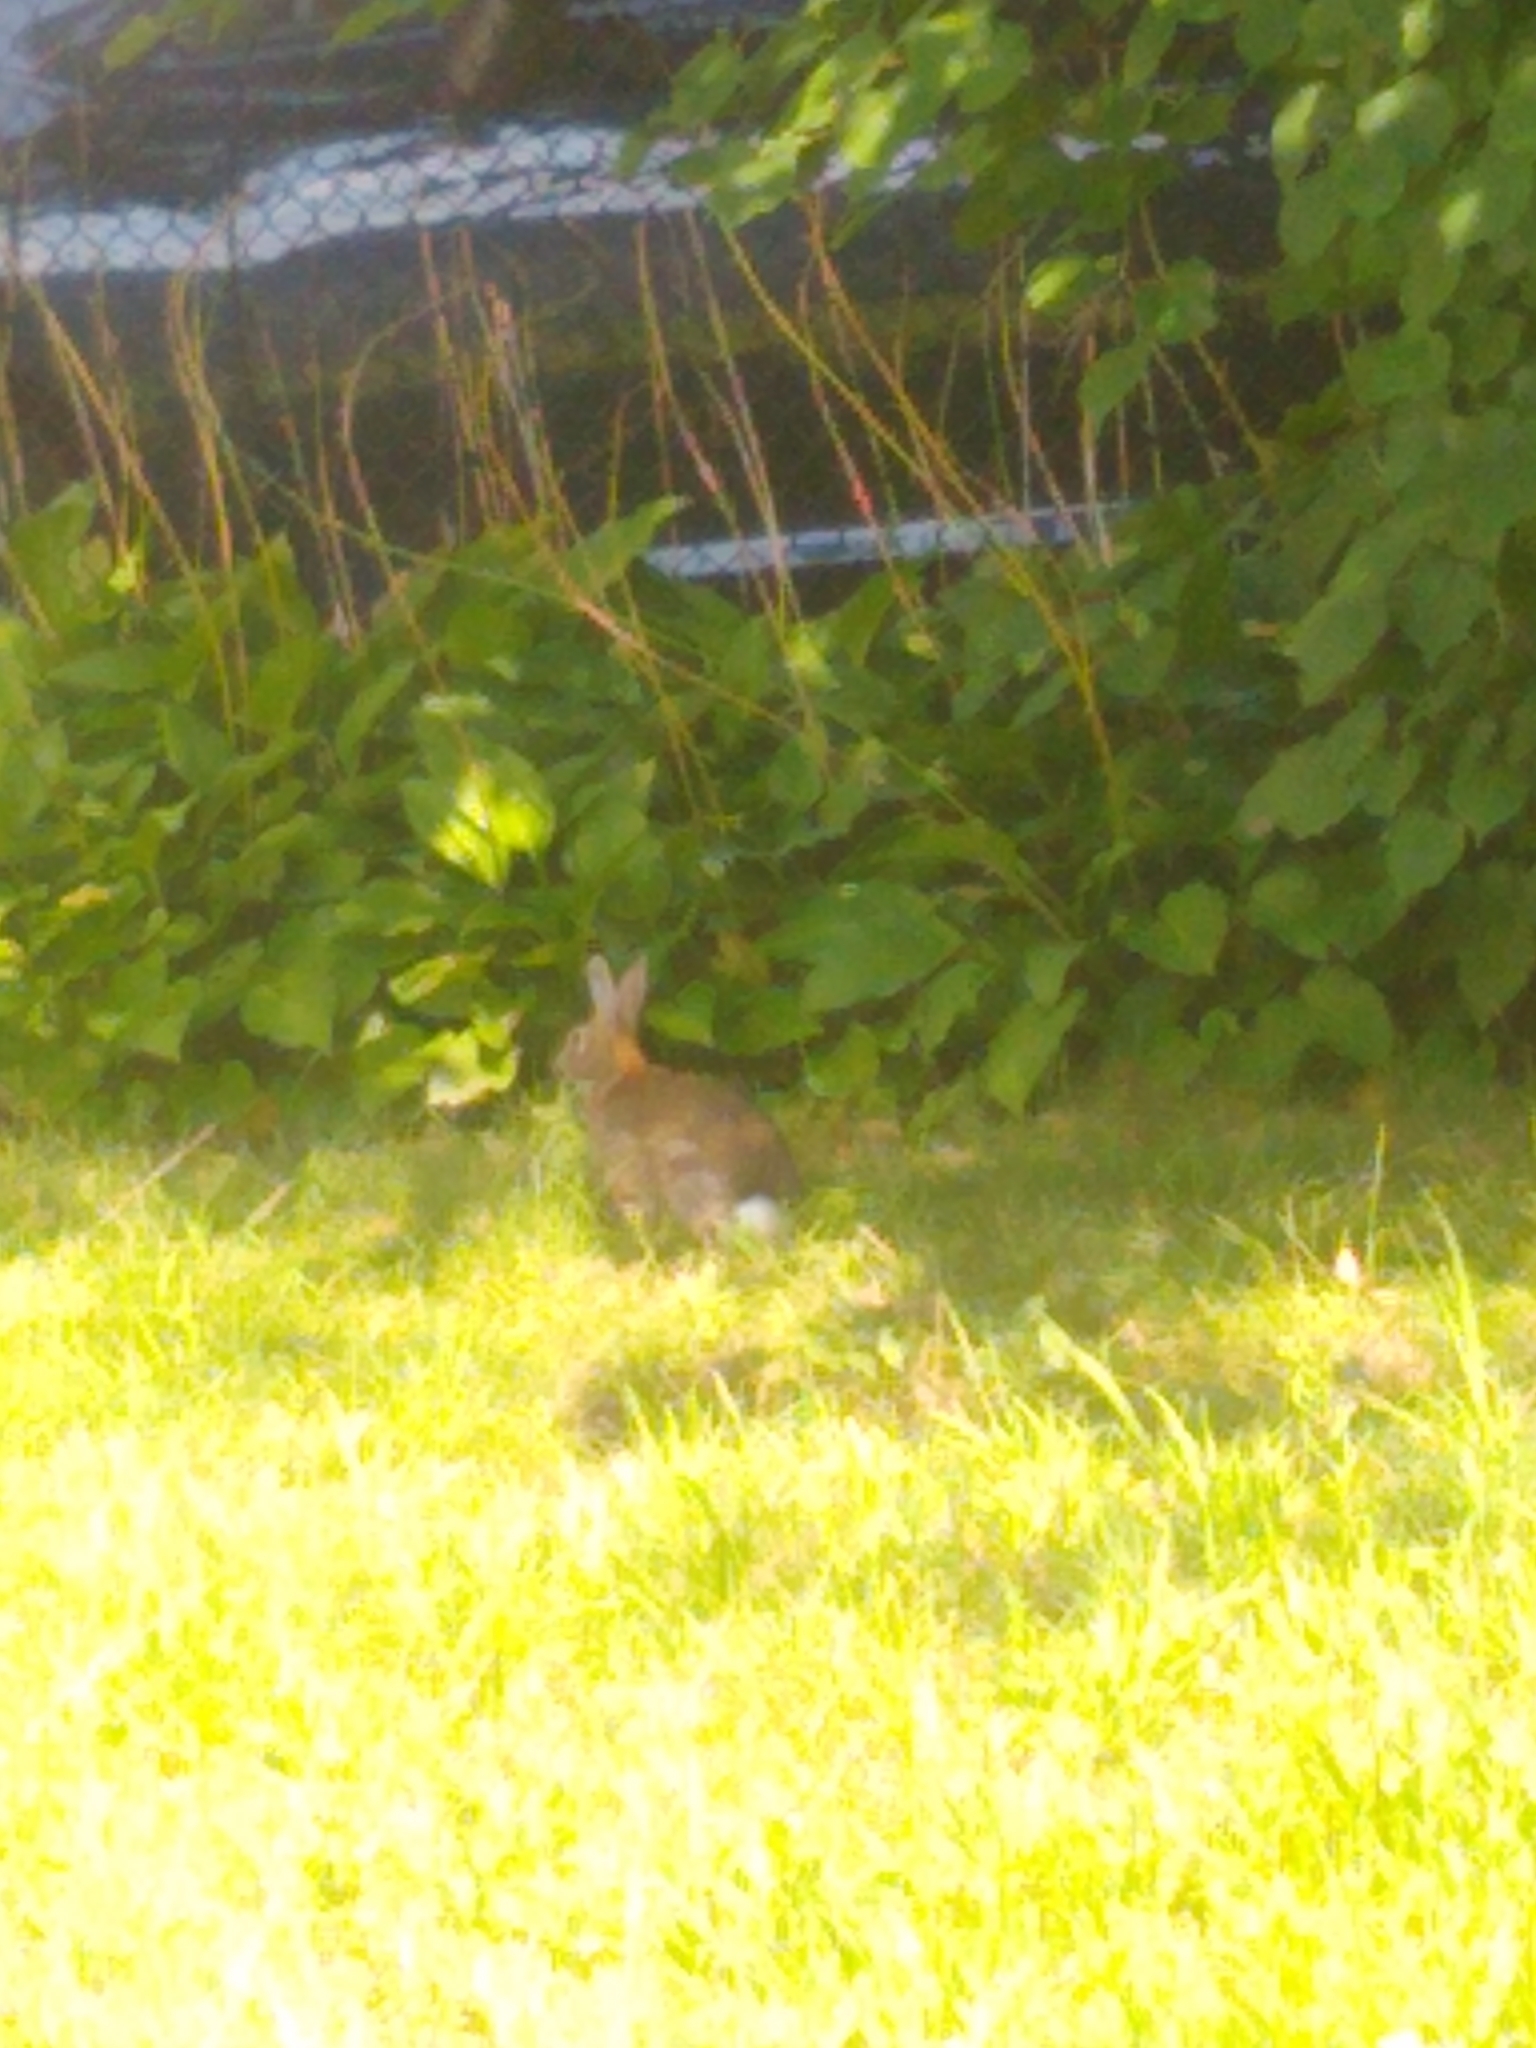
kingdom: Animalia
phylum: Chordata
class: Mammalia
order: Lagomorpha
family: Leporidae
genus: Sylvilagus
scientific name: Sylvilagus floridanus
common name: Eastern cottontail
